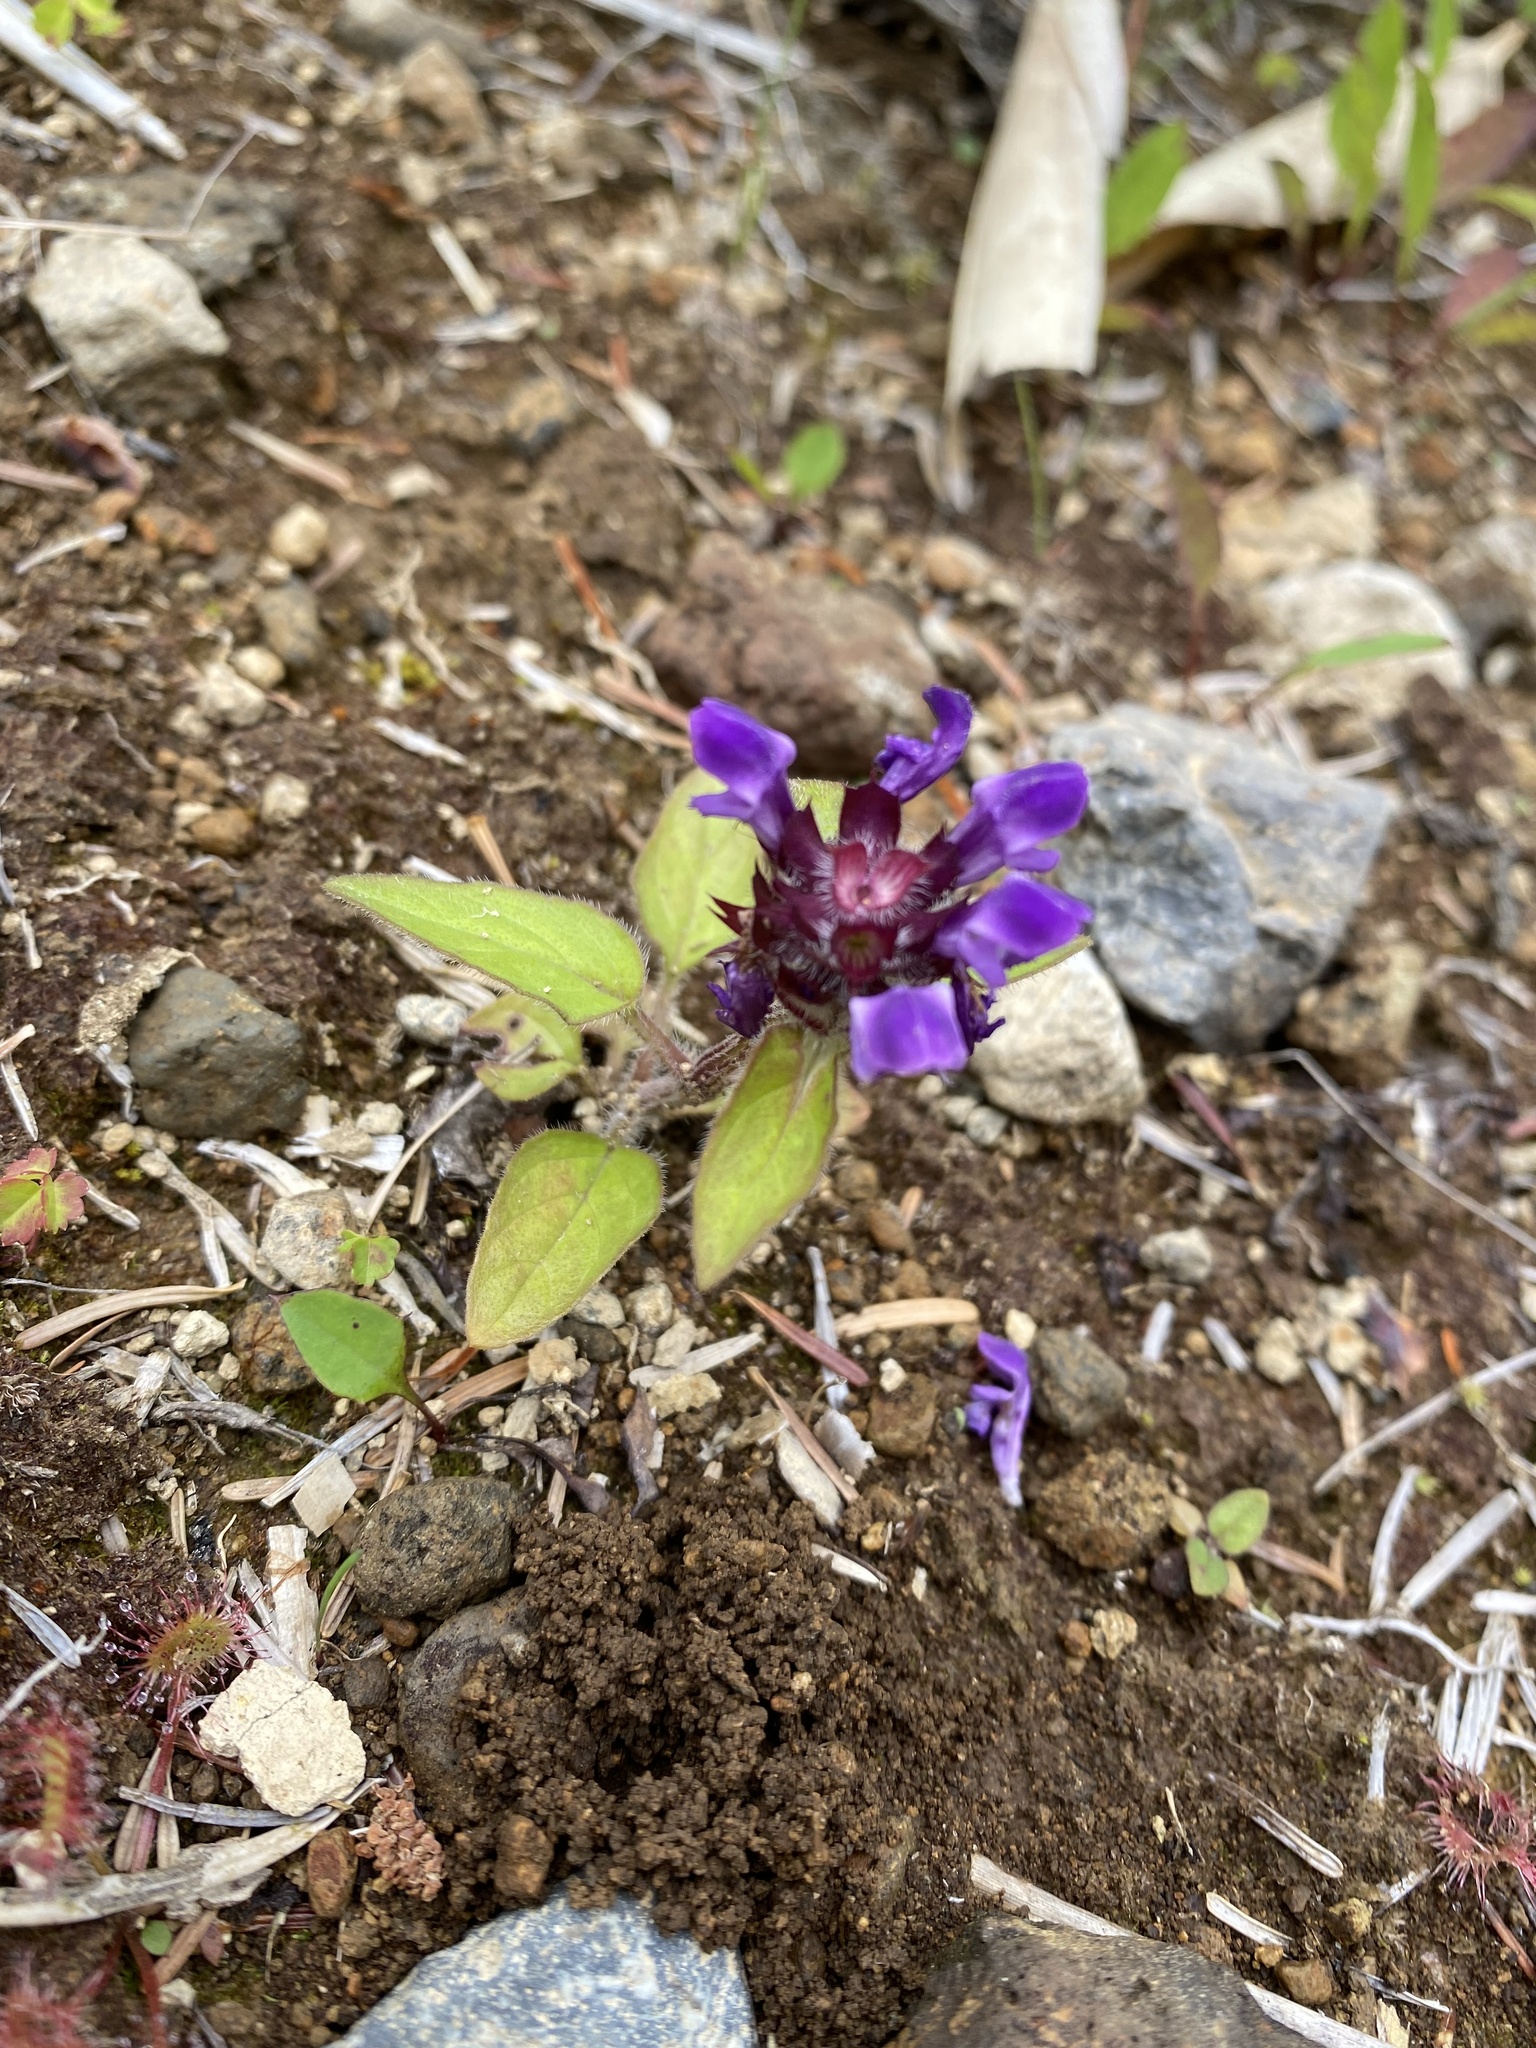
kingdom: Plantae
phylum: Tracheophyta
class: Magnoliopsida
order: Lamiales
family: Lamiaceae
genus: Prunella
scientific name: Prunella vulgaris
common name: Heal-all
